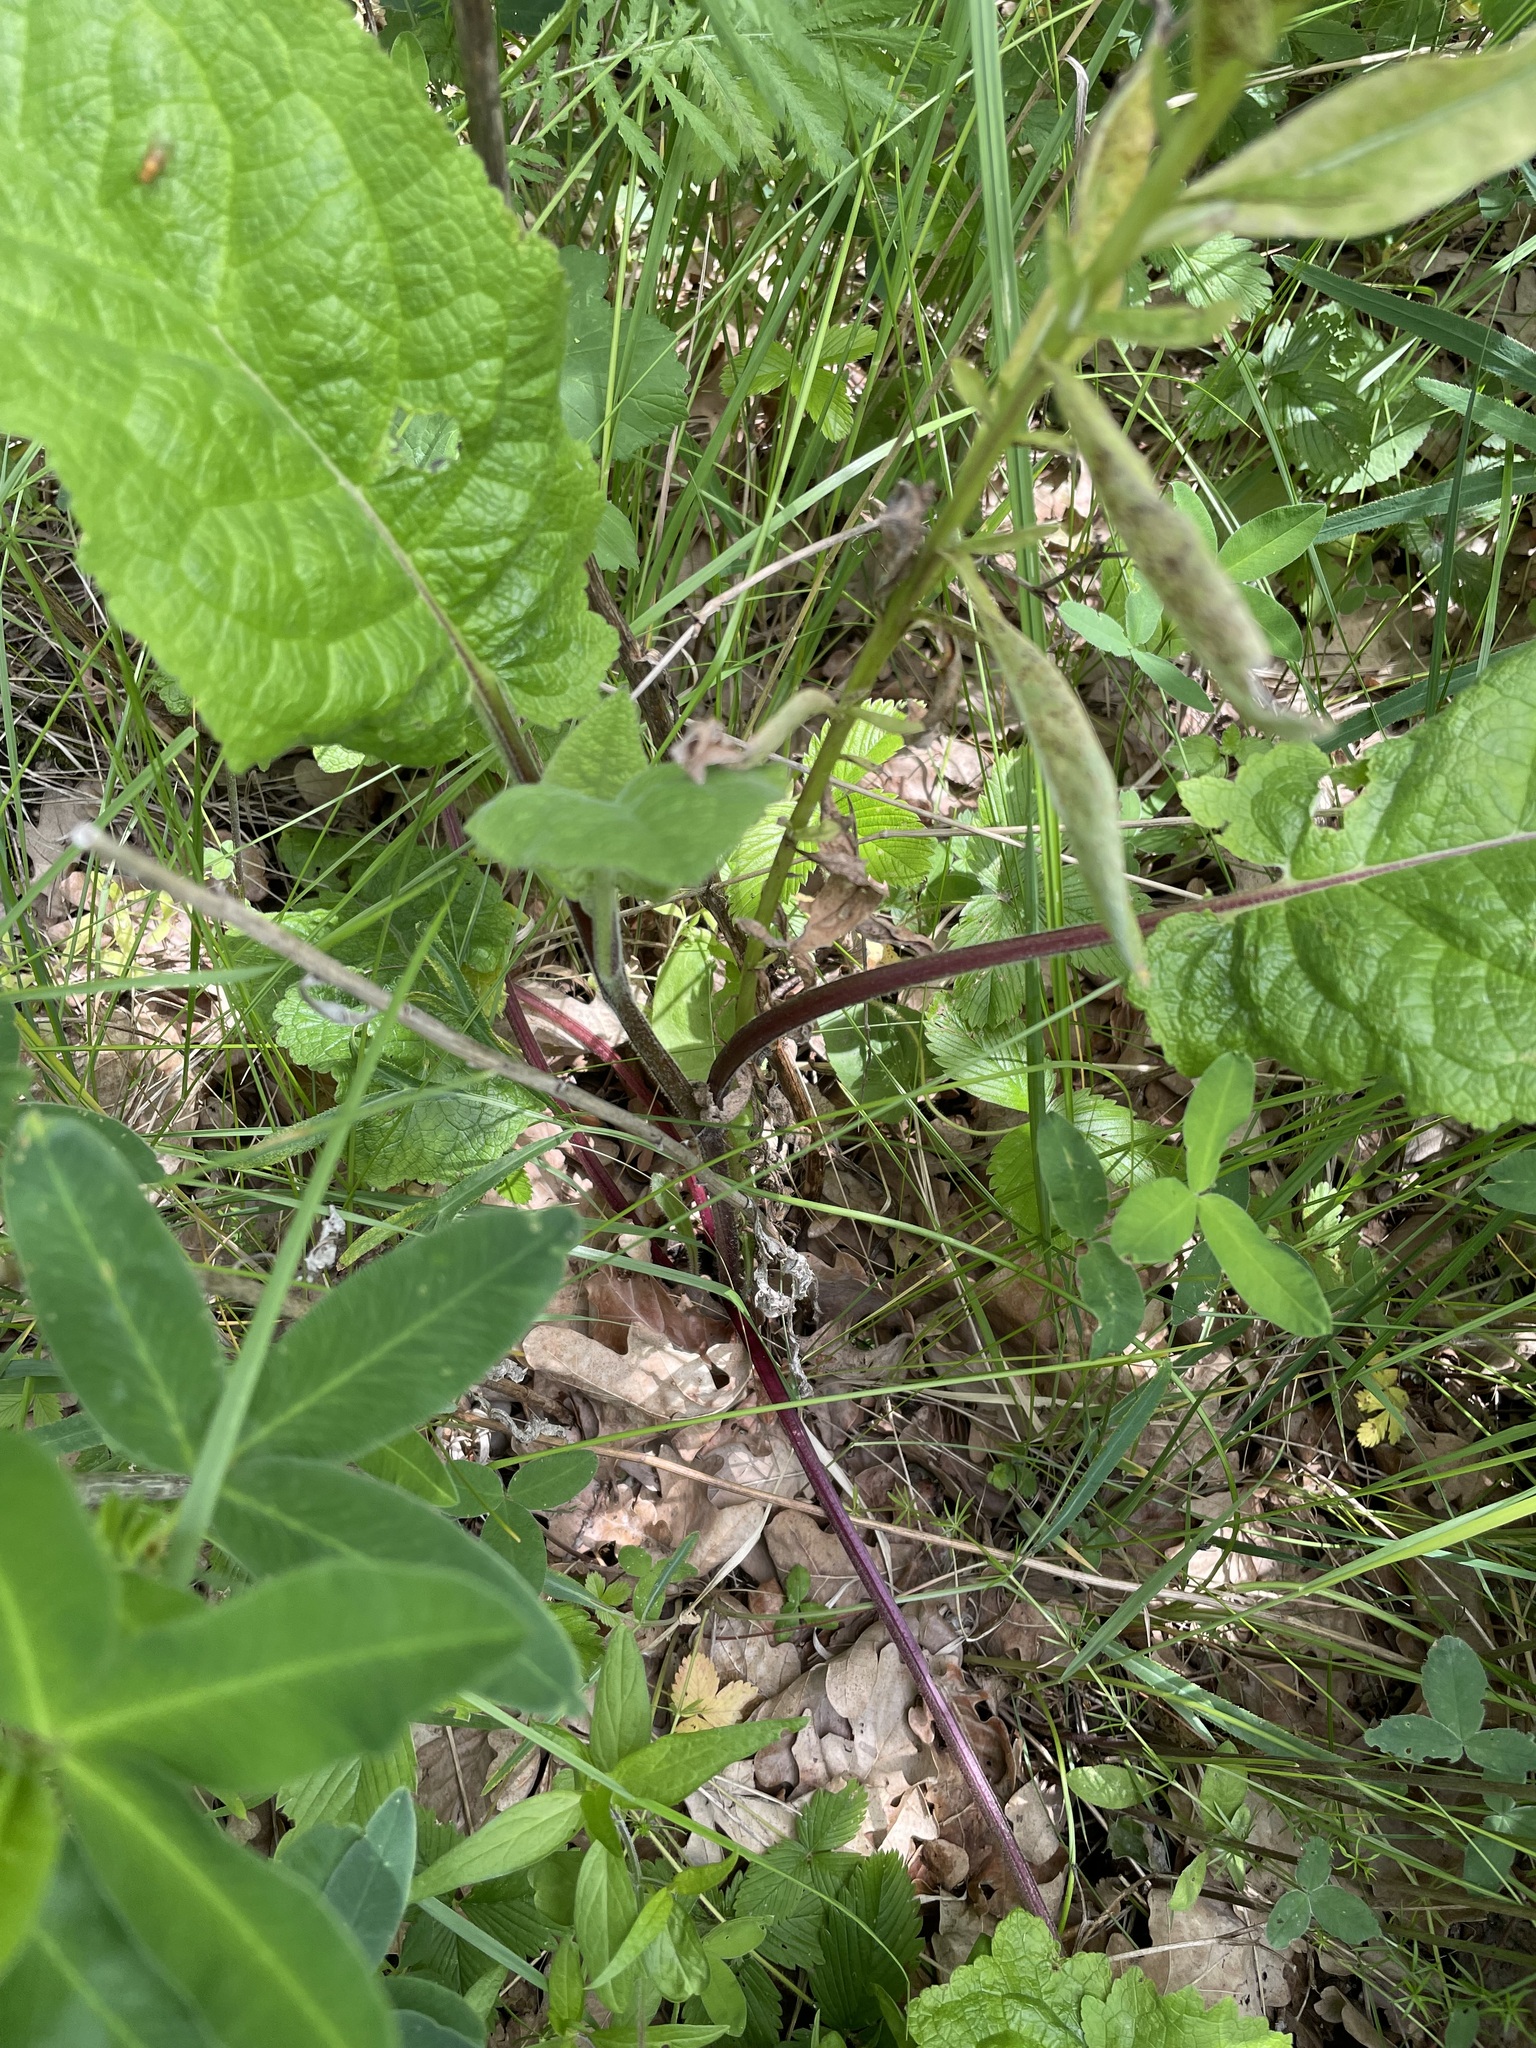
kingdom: Plantae
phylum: Tracheophyta
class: Magnoliopsida
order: Lamiales
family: Scrophulariaceae
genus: Verbascum
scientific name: Verbascum nigrum
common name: Dark mullein
